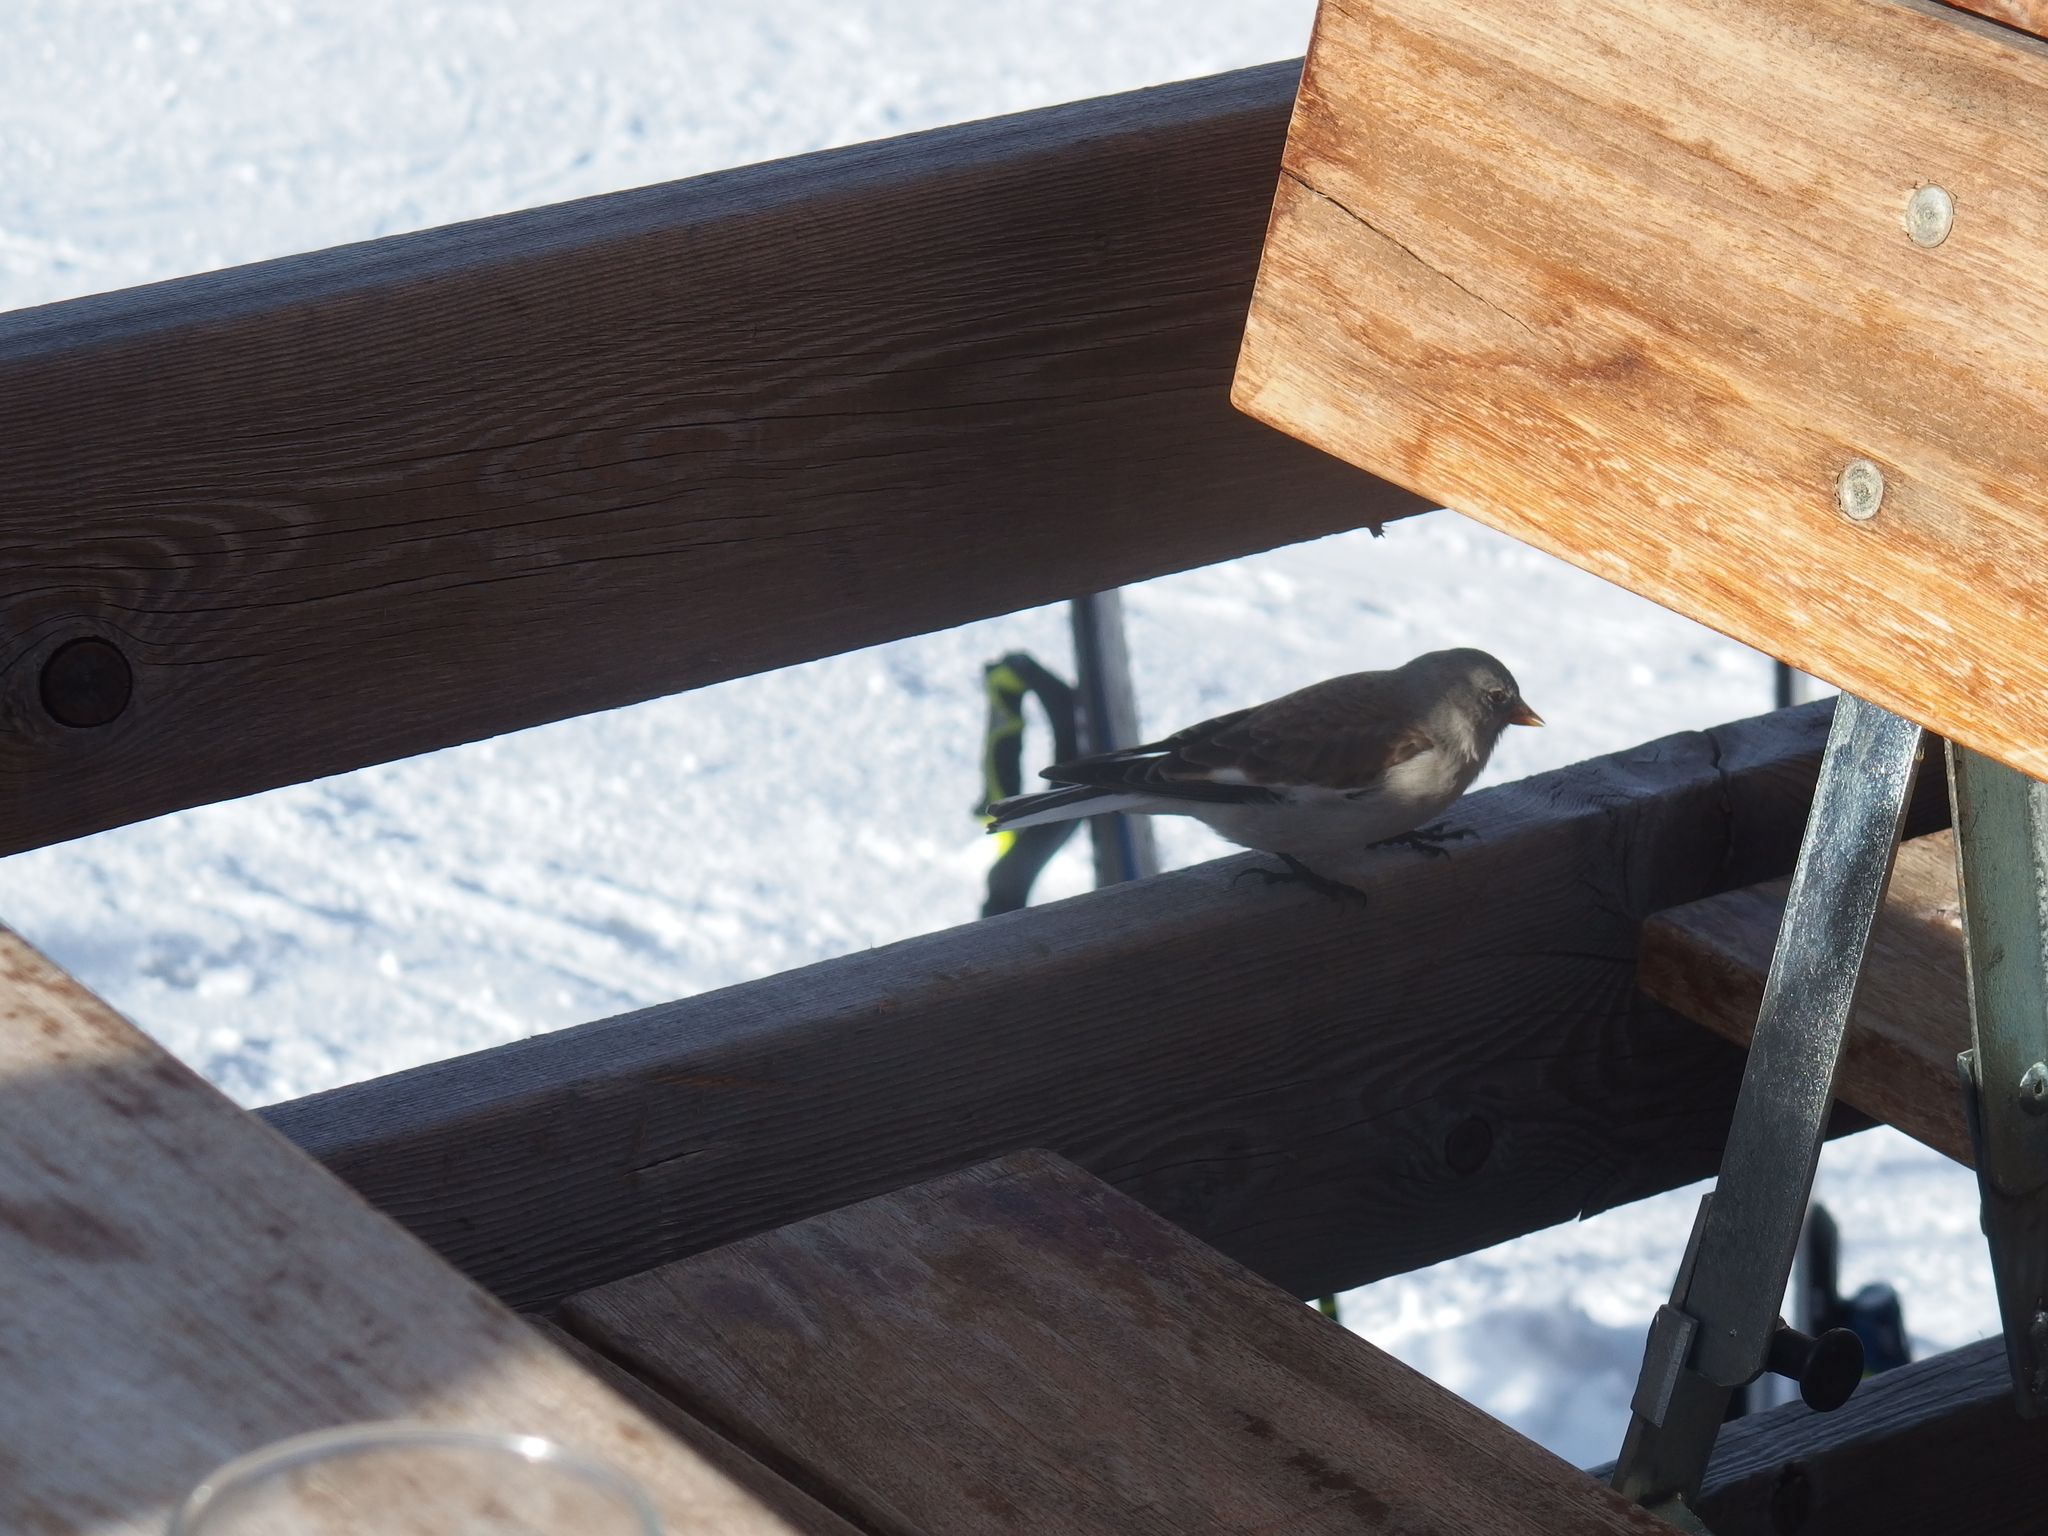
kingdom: Animalia
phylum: Chordata
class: Aves
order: Passeriformes
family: Passeridae
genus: Montifringilla
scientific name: Montifringilla nivalis
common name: White-winged snowfinch
